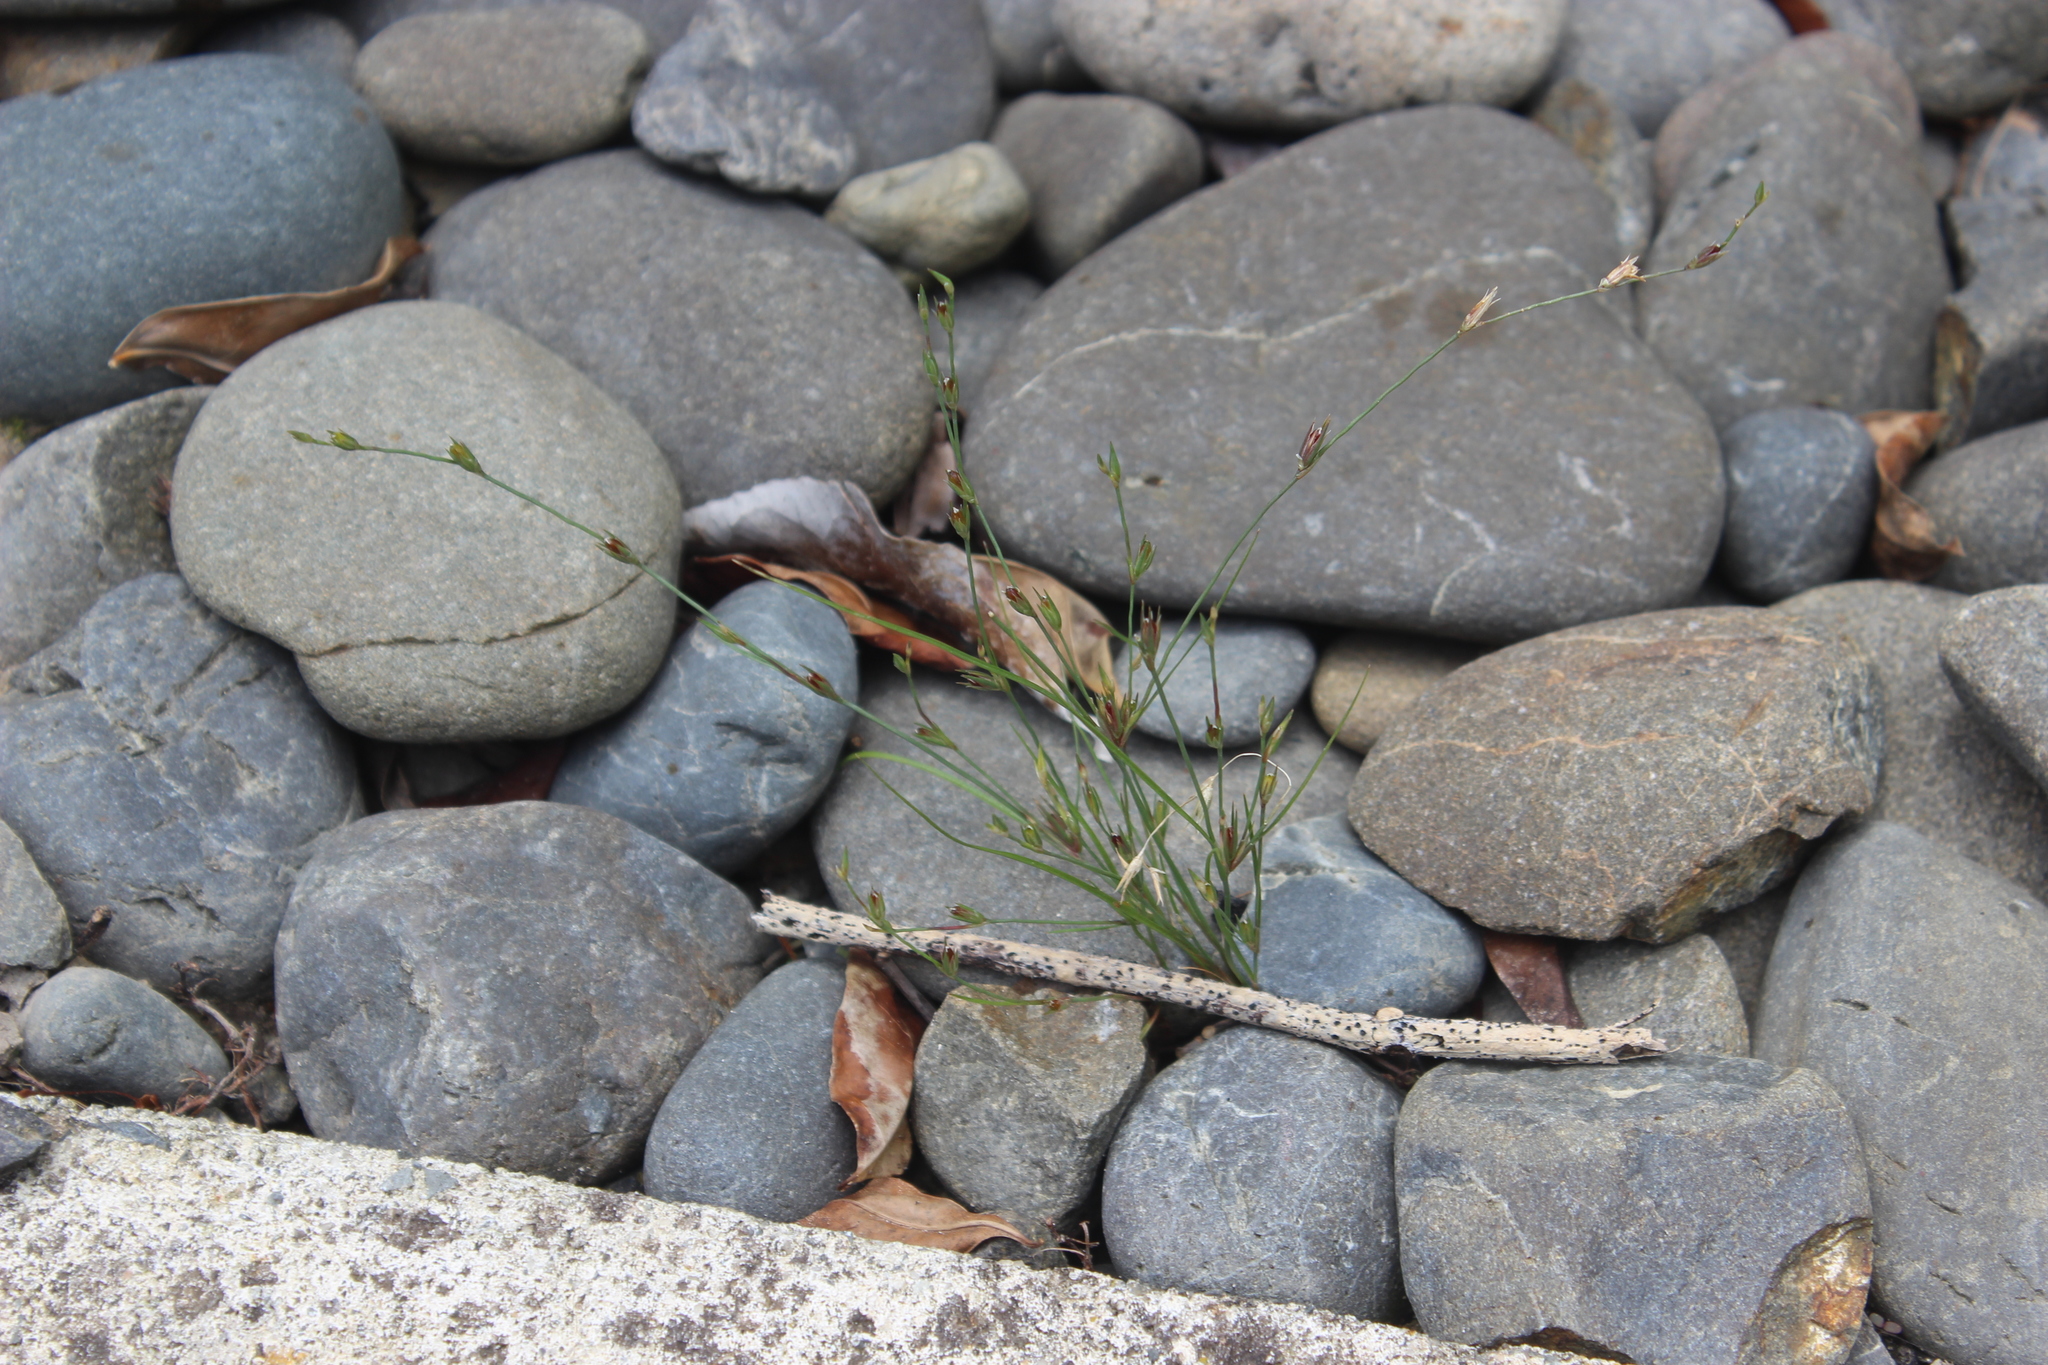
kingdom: Plantae
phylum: Tracheophyta
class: Liliopsida
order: Poales
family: Juncaceae
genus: Juncus
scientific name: Juncus bufonius
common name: Toad rush
